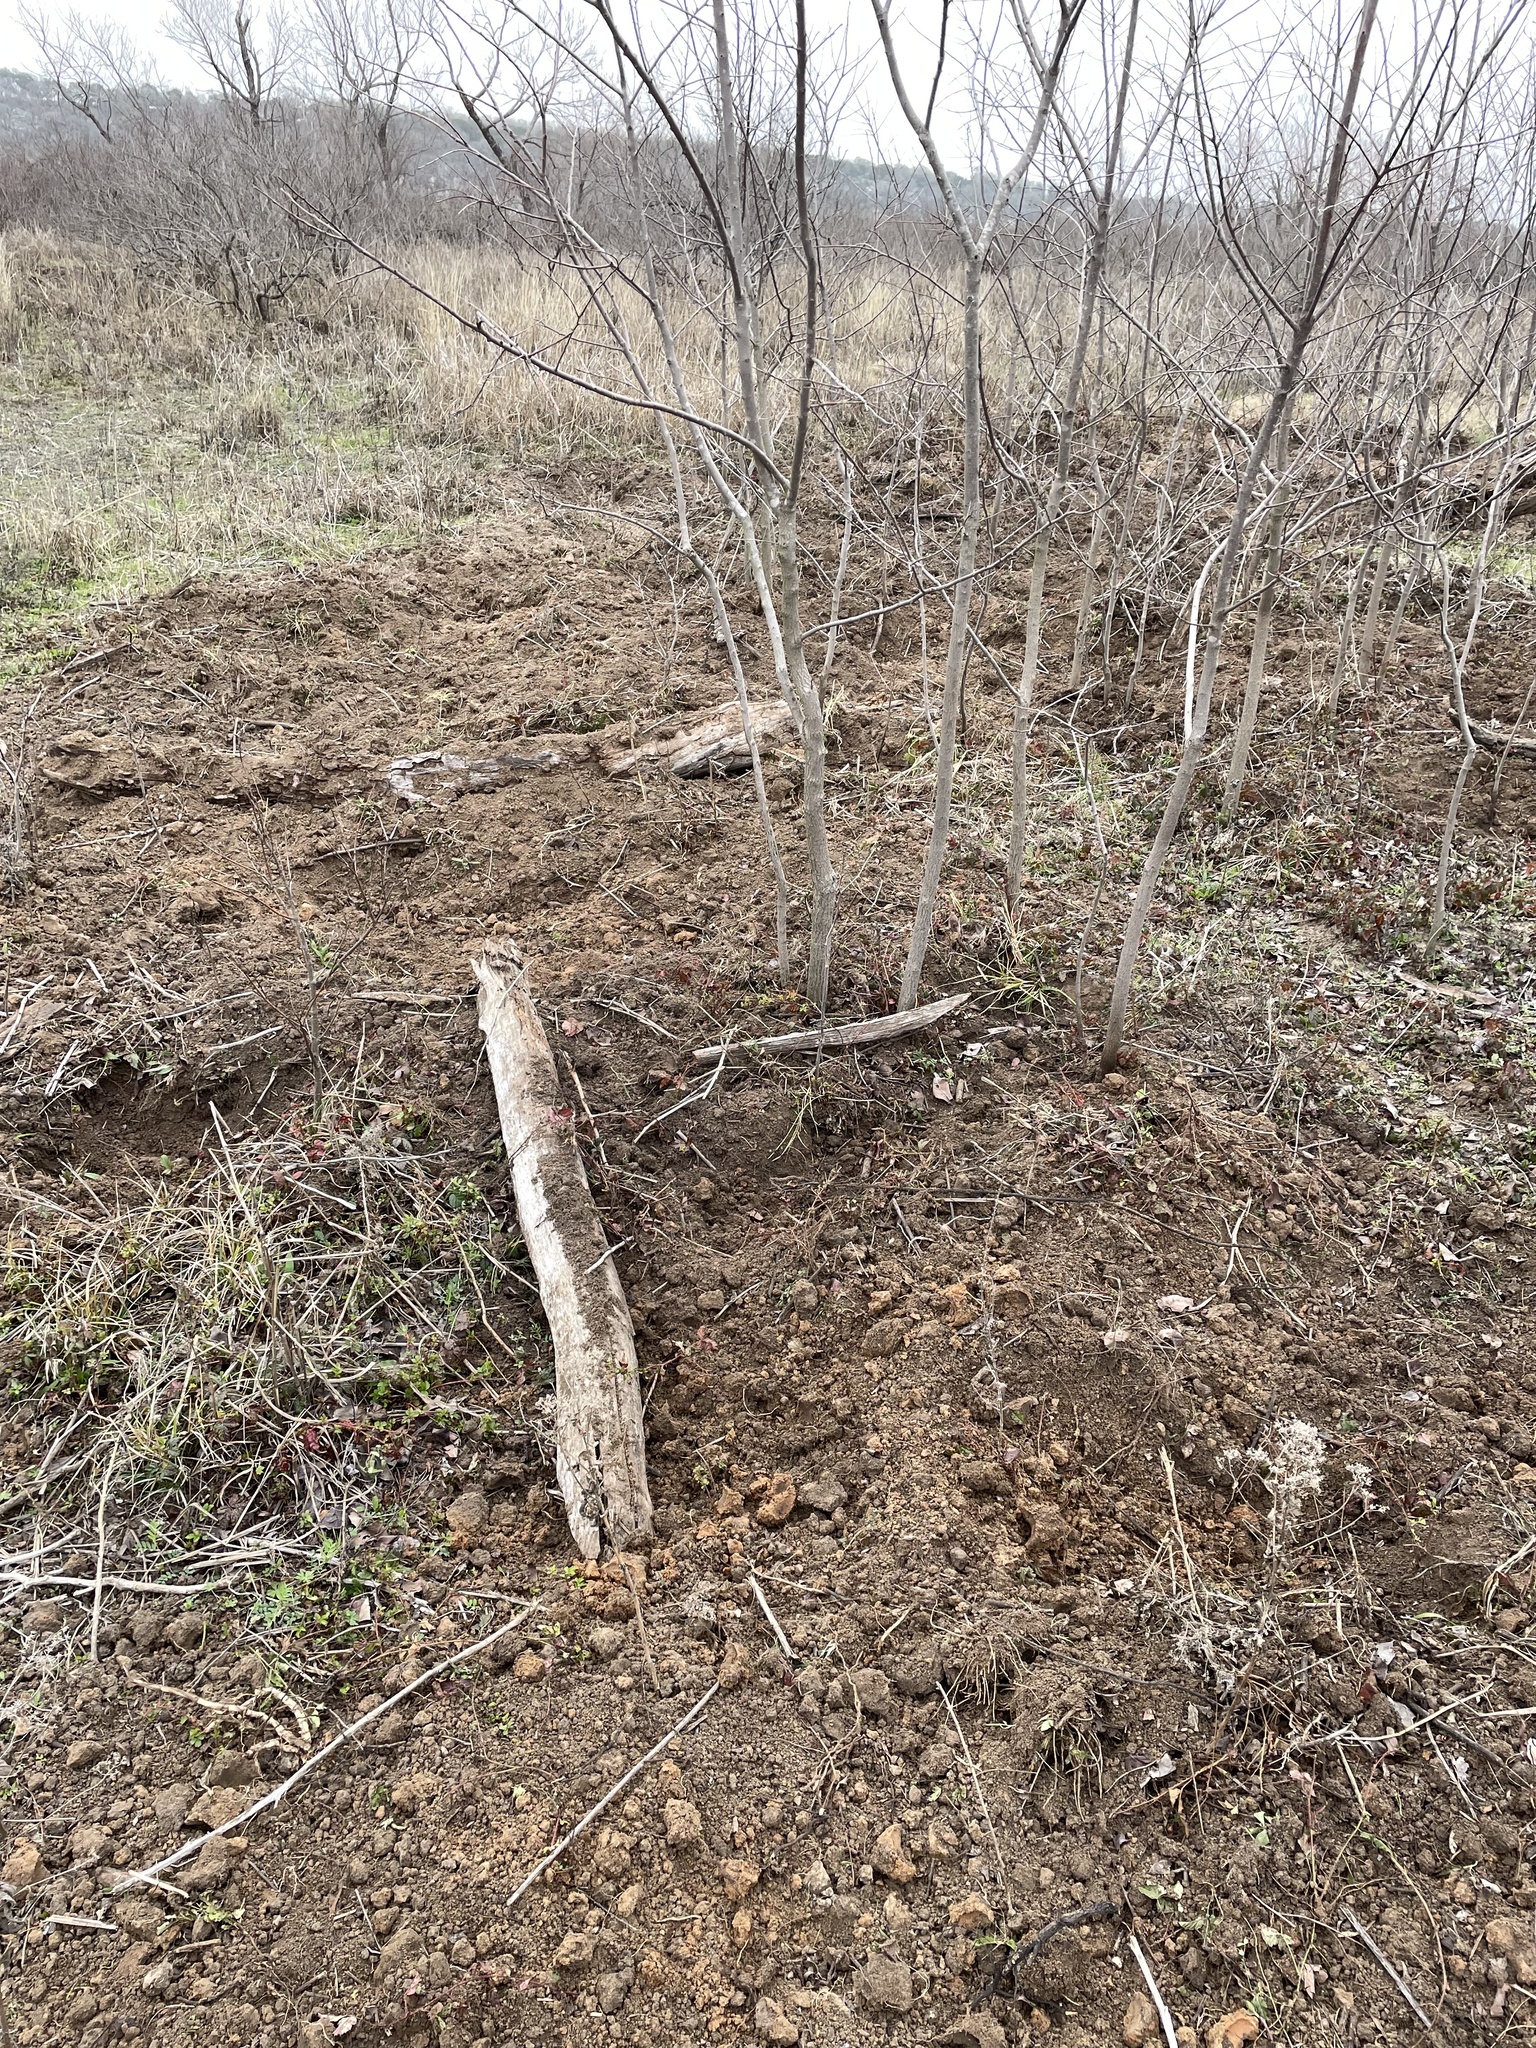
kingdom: Animalia
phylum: Chordata
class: Mammalia
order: Artiodactyla
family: Suidae
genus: Sus
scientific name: Sus scrofa
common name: Wild boar
